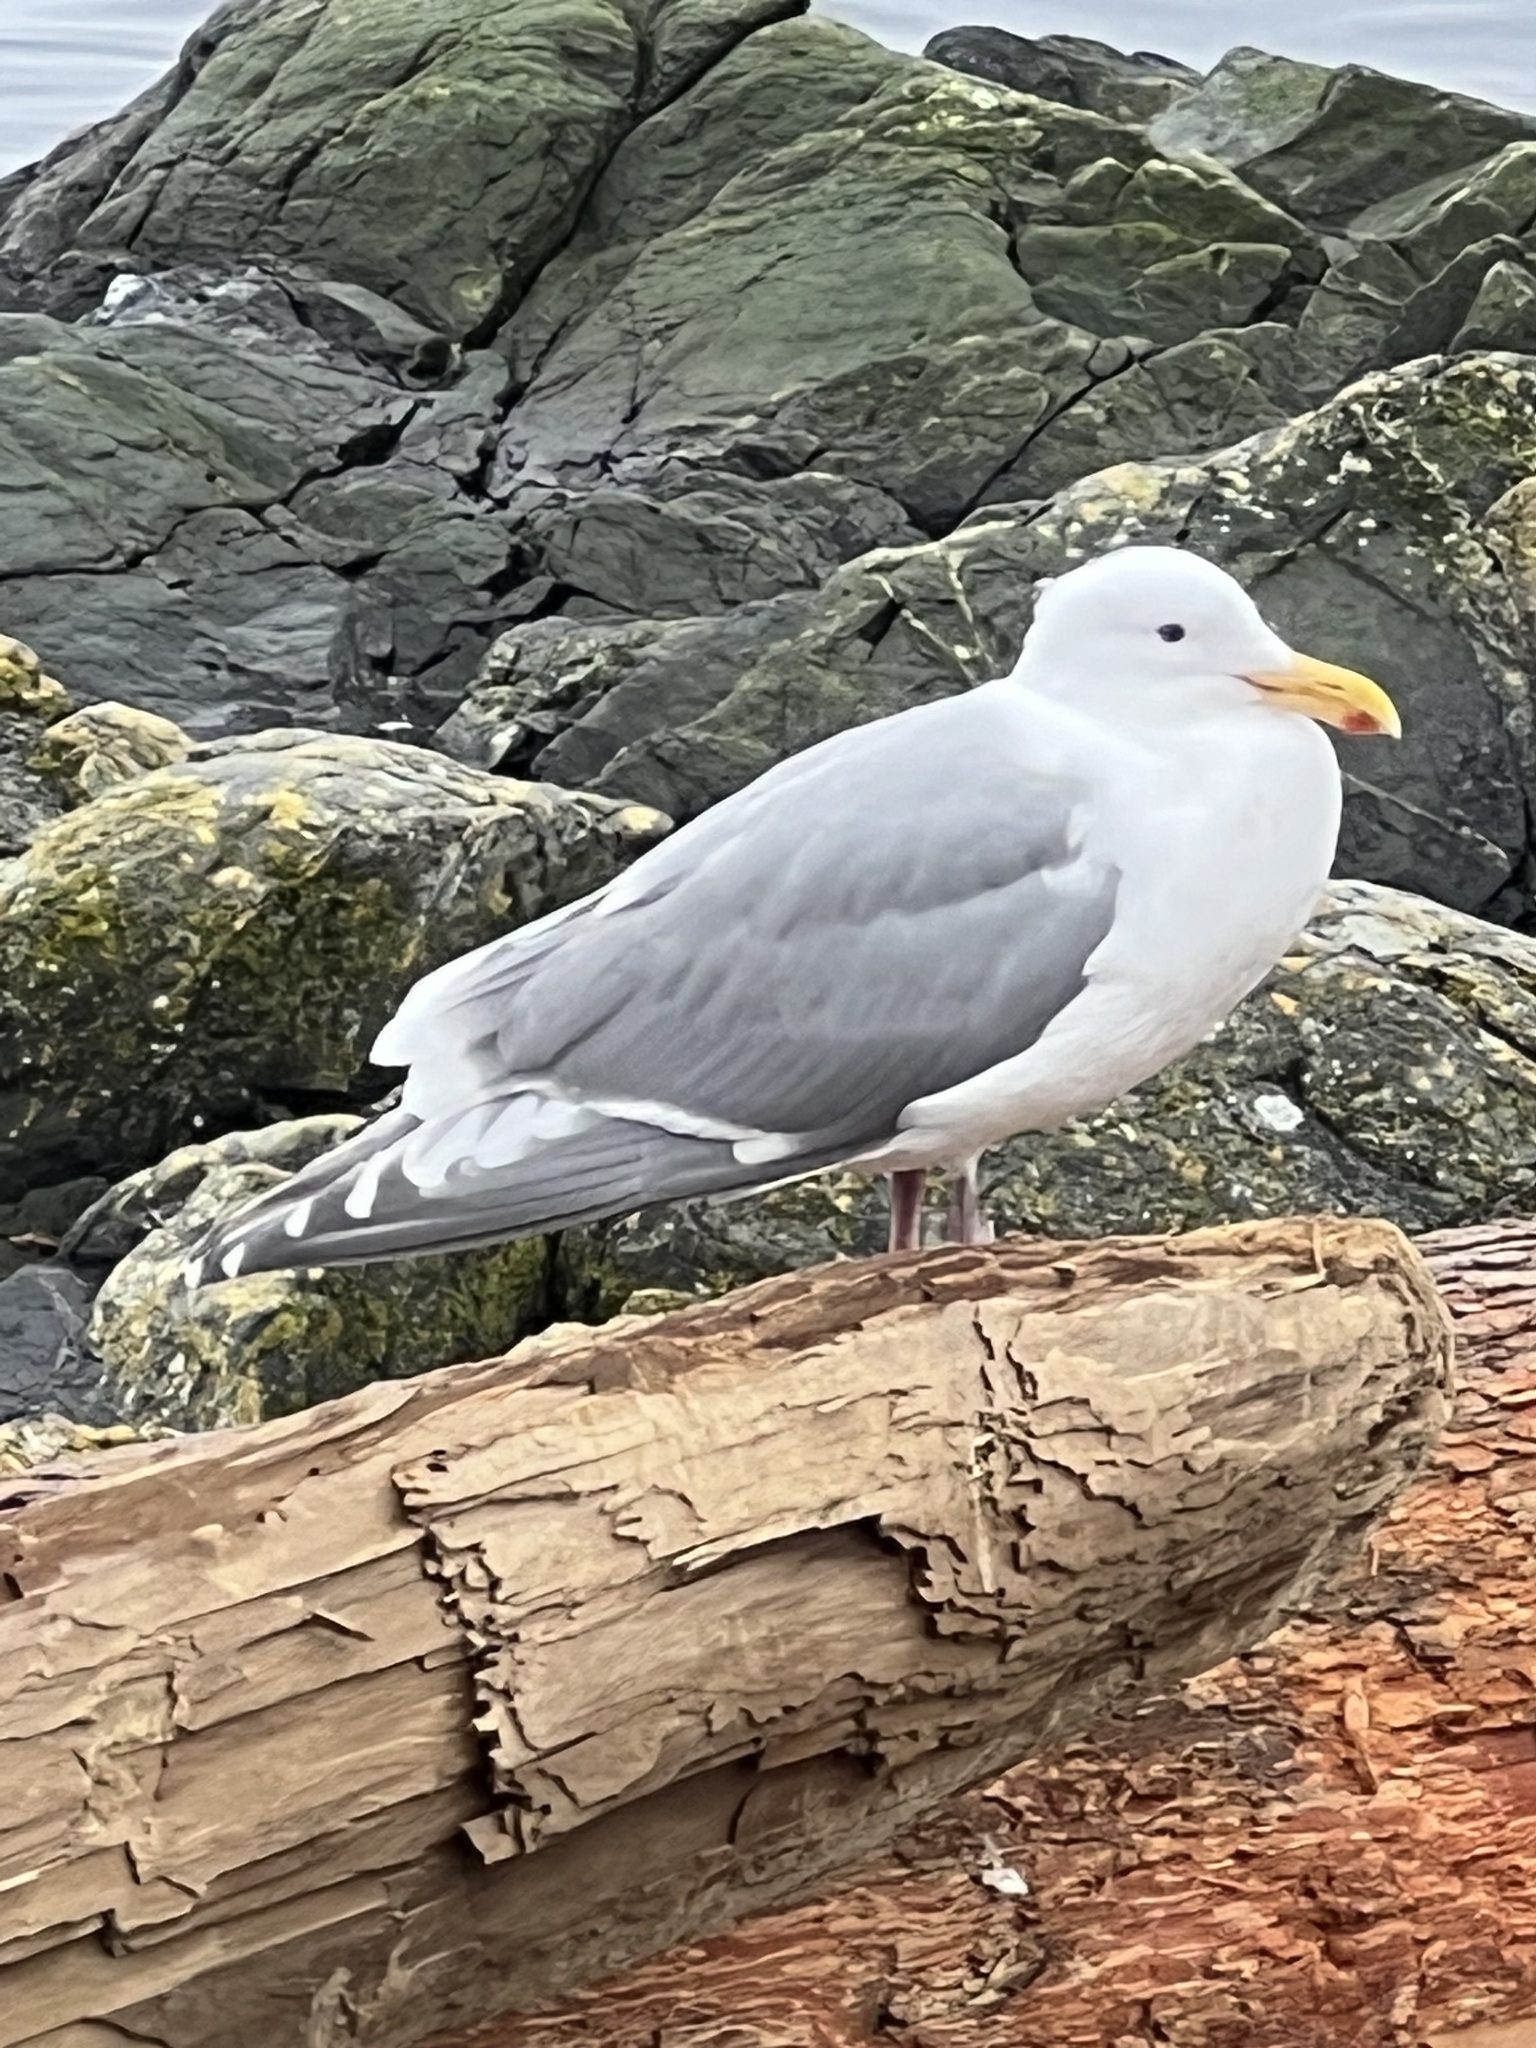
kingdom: Animalia
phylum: Chordata
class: Aves
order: Charadriiformes
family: Laridae
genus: Larus
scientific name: Larus
